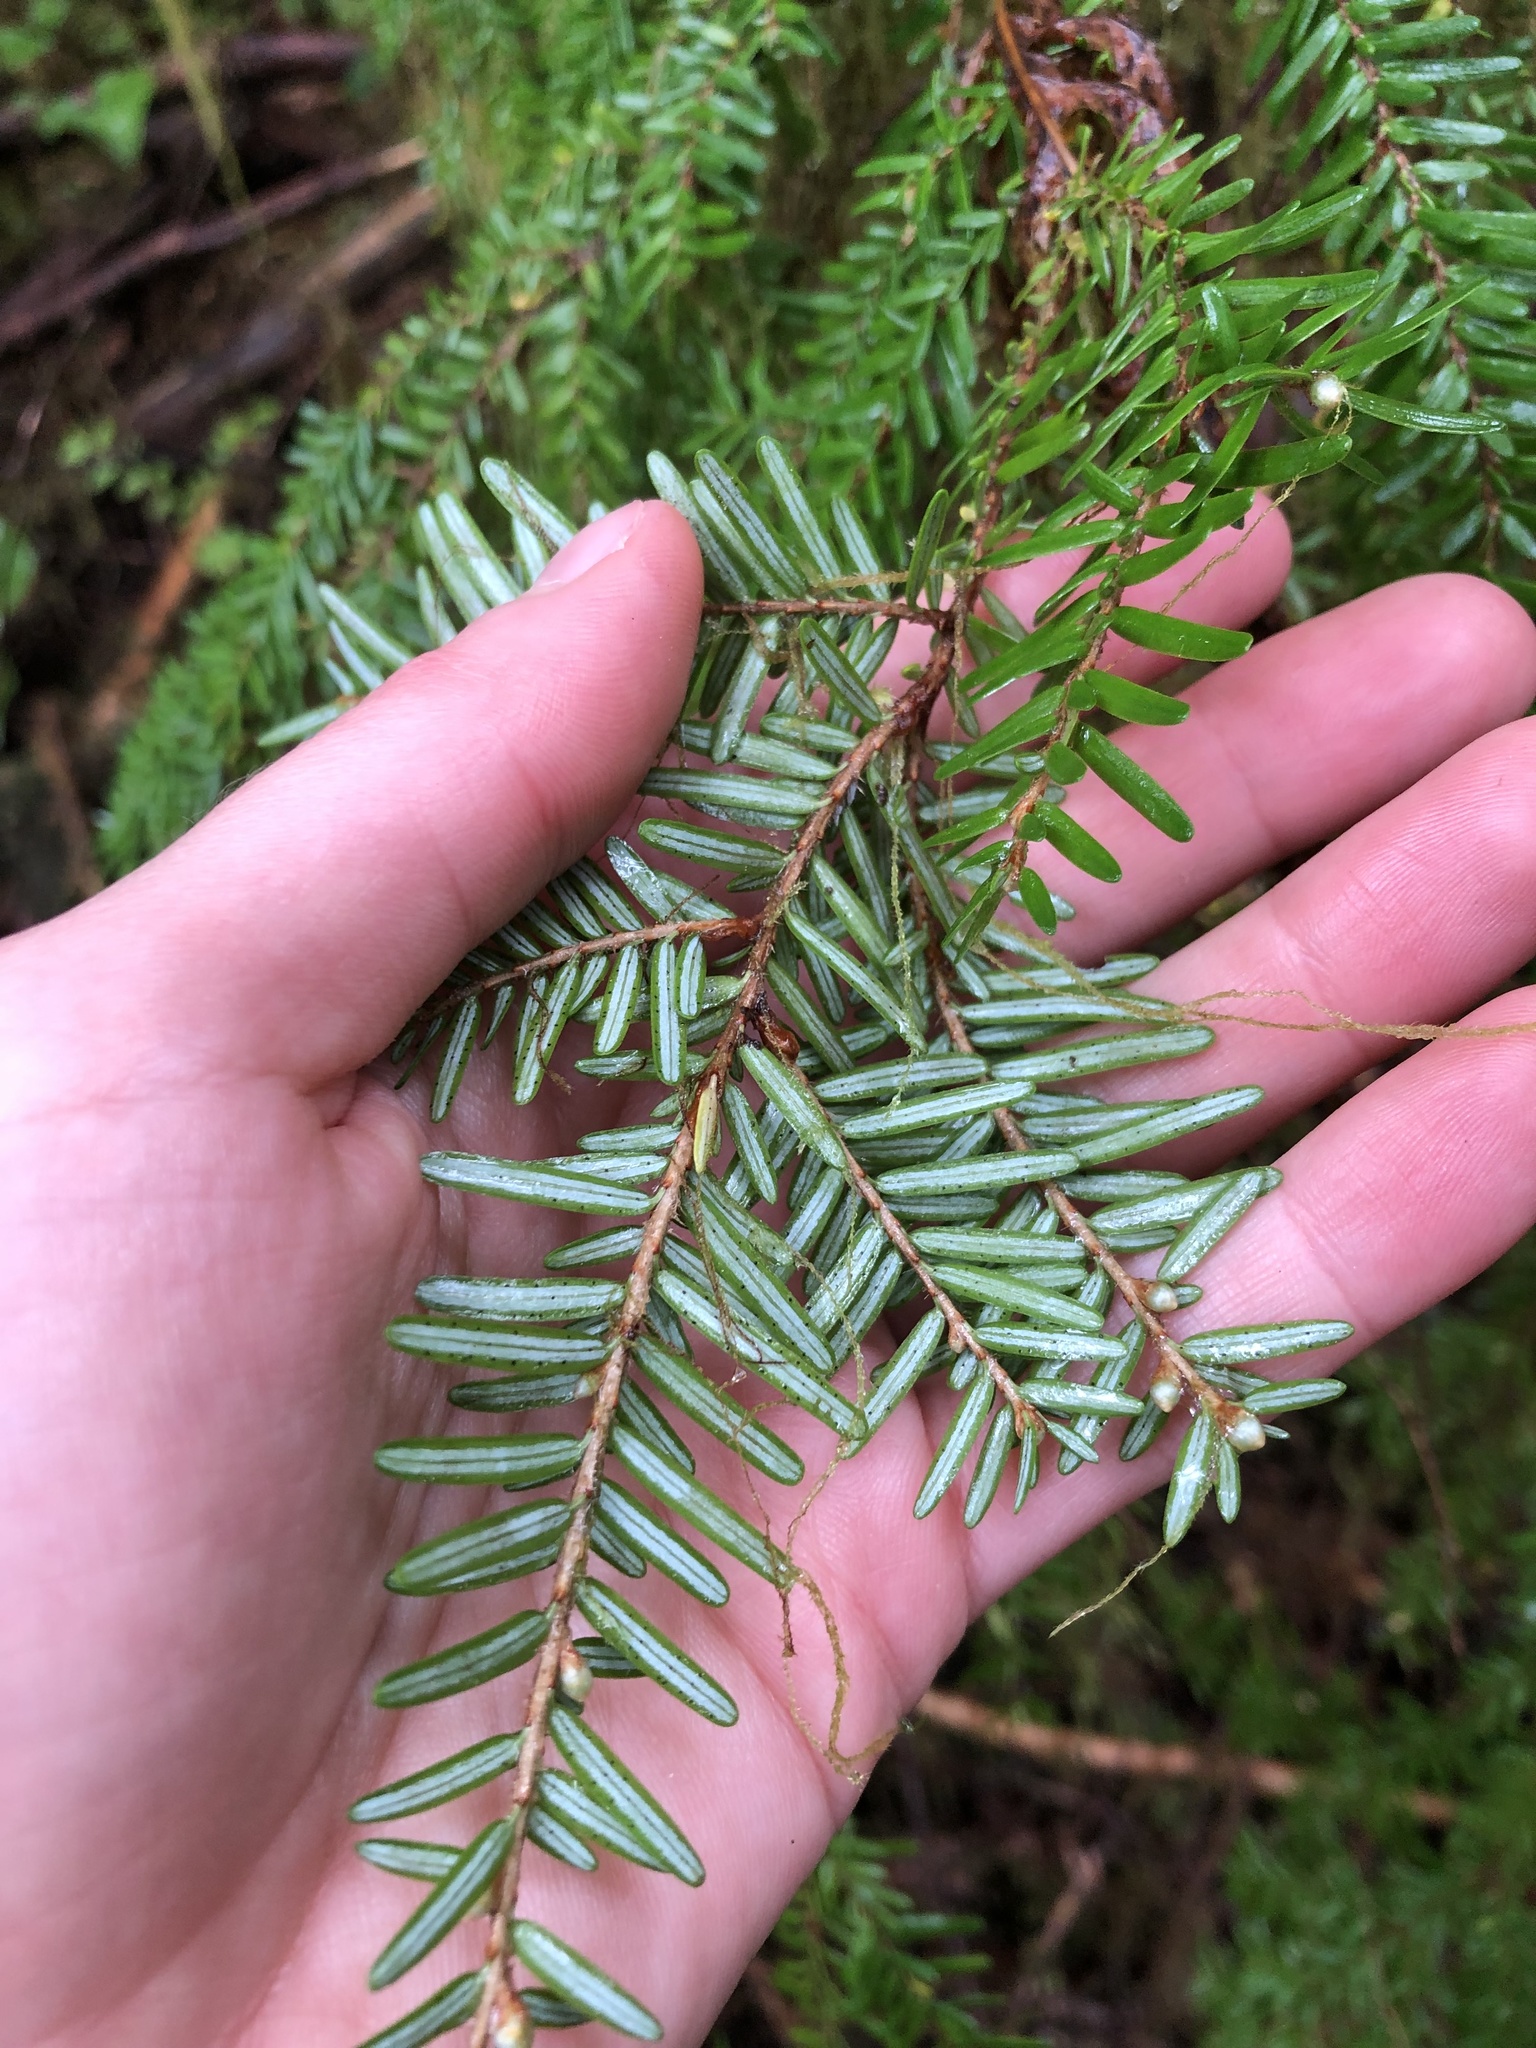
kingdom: Plantae
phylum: Tracheophyta
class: Pinopsida
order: Pinales
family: Pinaceae
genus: Tsuga
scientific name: Tsuga heterophylla
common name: Western hemlock
